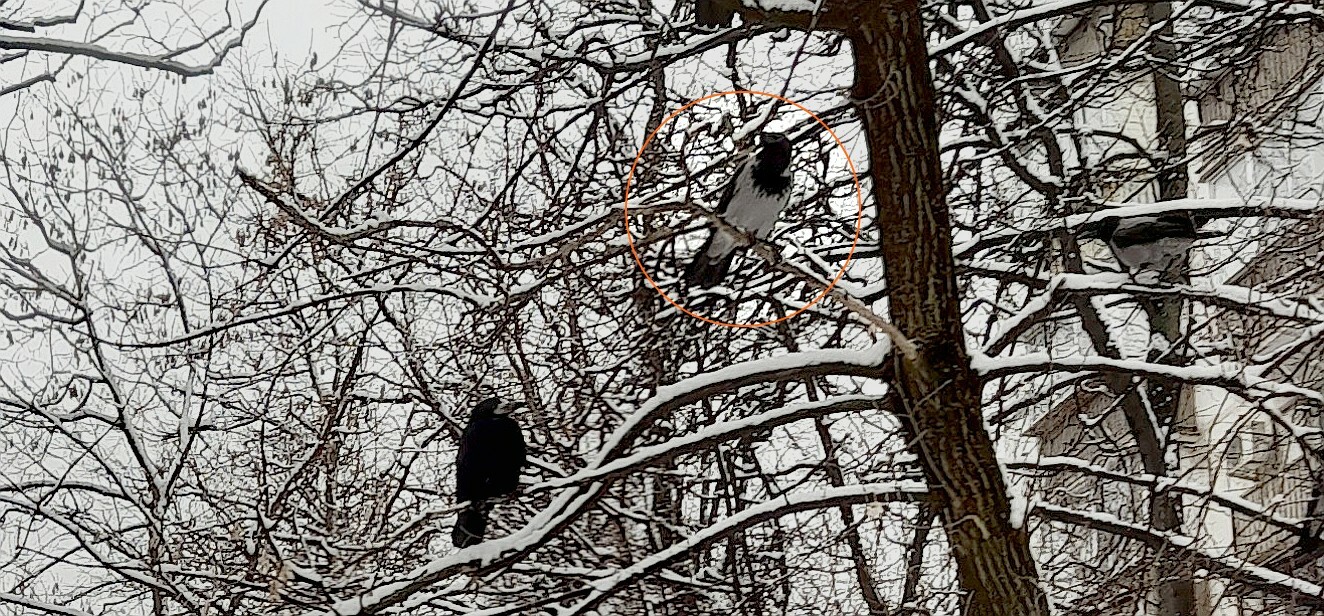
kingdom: Animalia
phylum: Chordata
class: Aves
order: Passeriformes
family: Corvidae
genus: Corvus
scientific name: Corvus cornix
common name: Hooded crow
